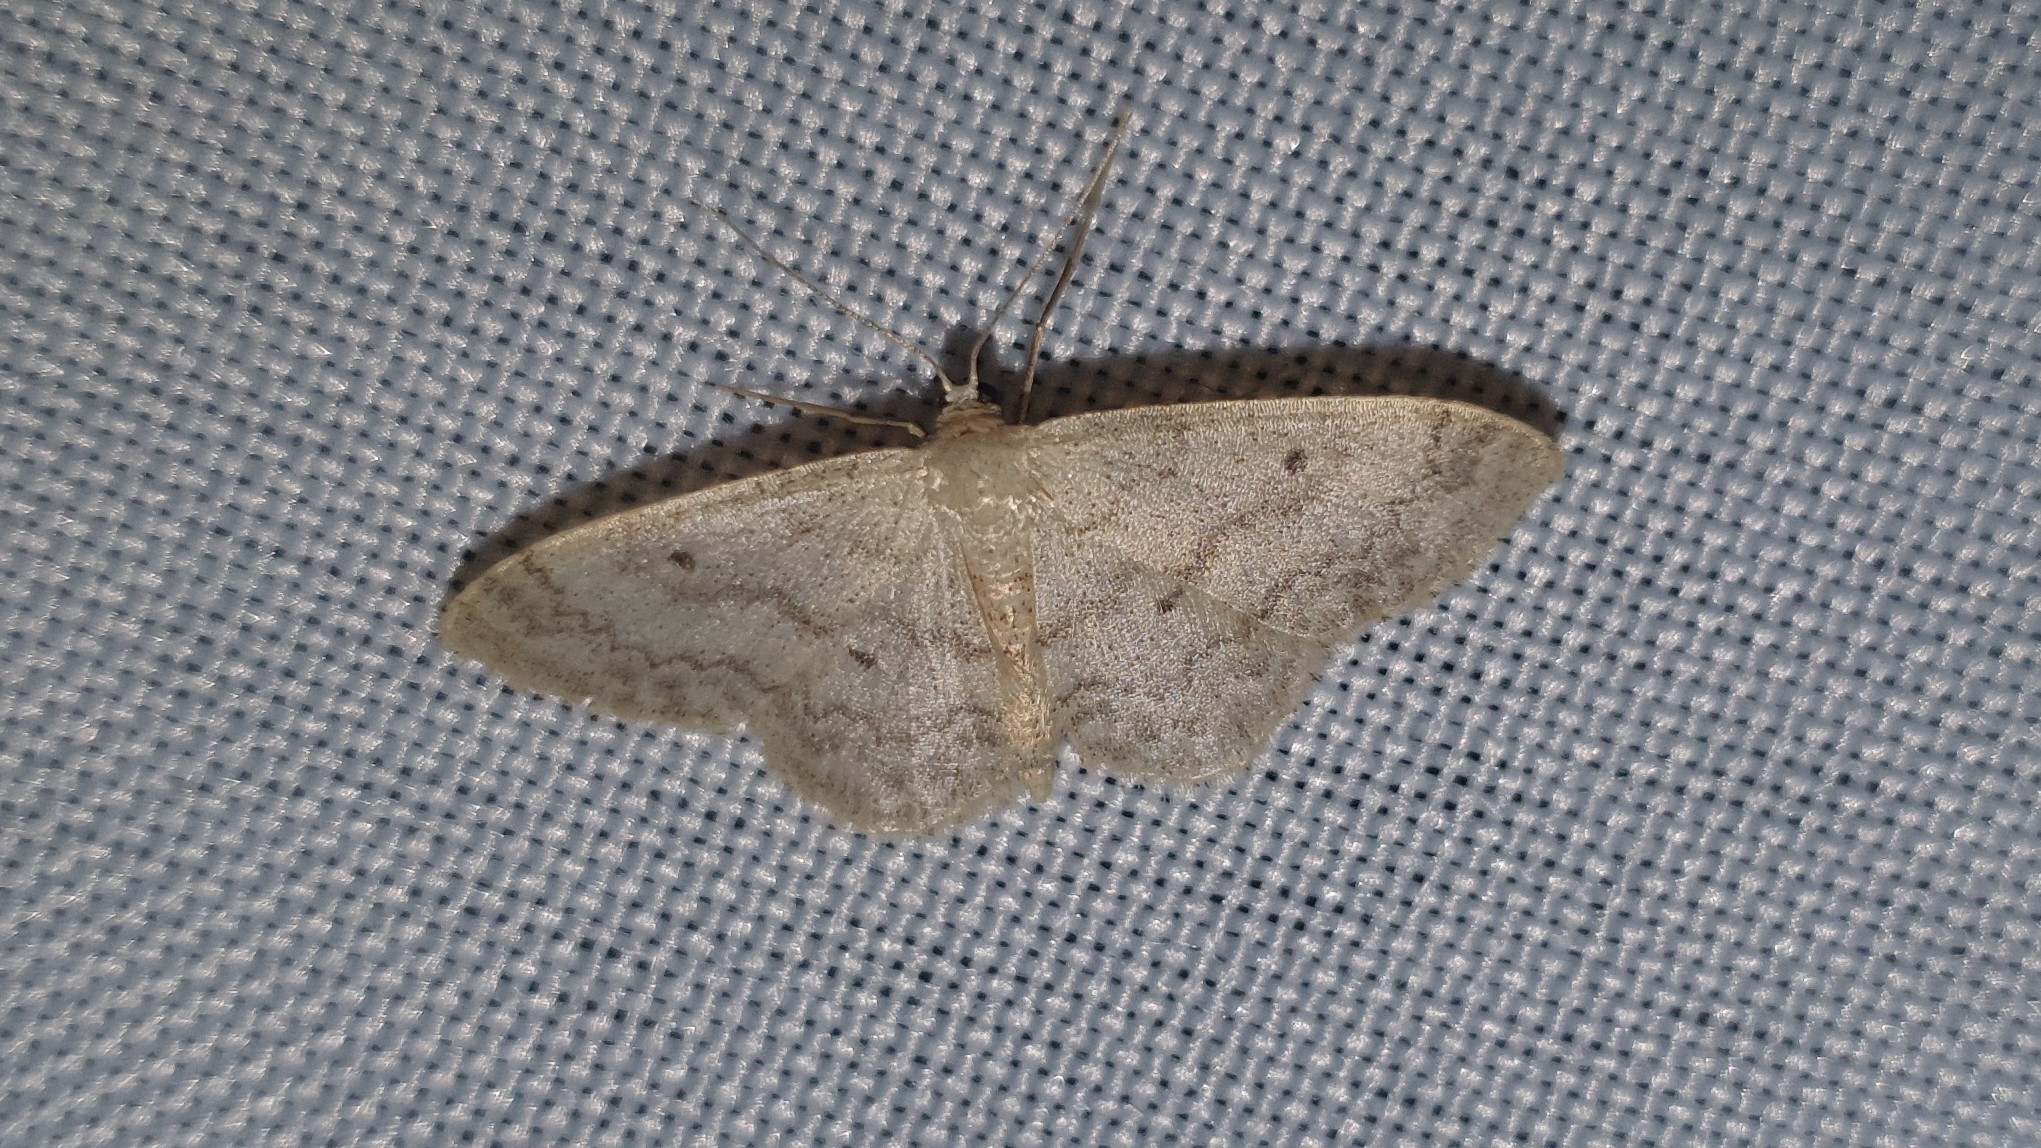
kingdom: Animalia
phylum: Arthropoda
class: Insecta
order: Lepidoptera
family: Geometridae
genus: Idaea
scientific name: Idaea biselata
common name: Small fan-footed wave
